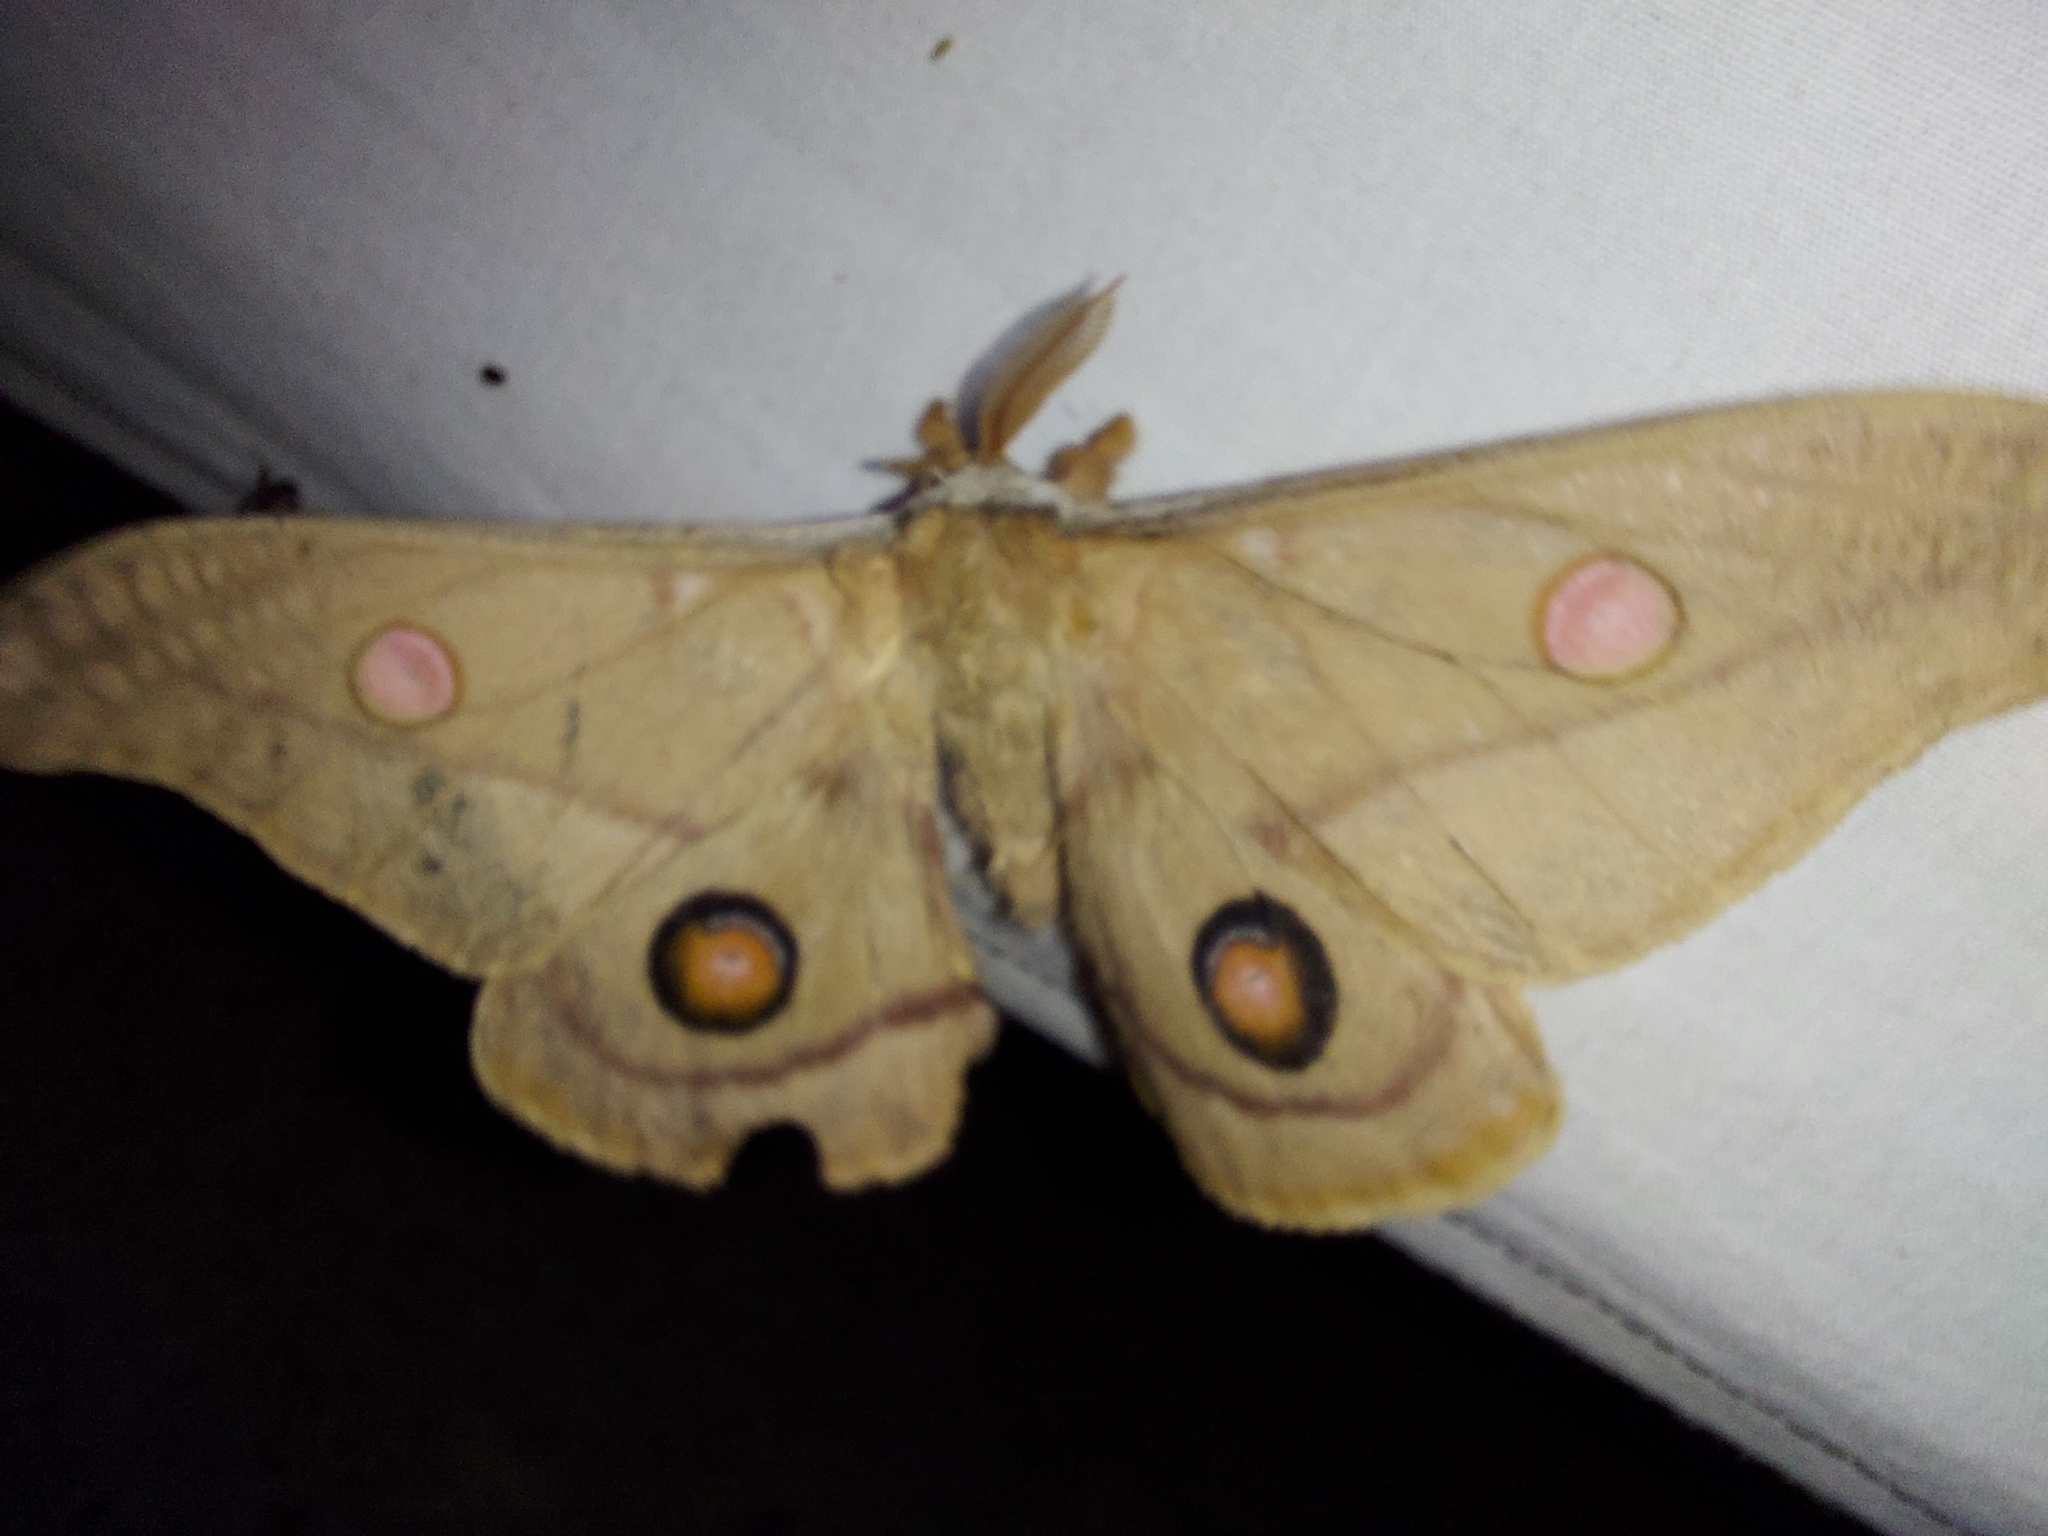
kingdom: Animalia
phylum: Arthropoda
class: Insecta
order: Lepidoptera
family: Saturniidae
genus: Opodiphthera
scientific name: Opodiphthera
